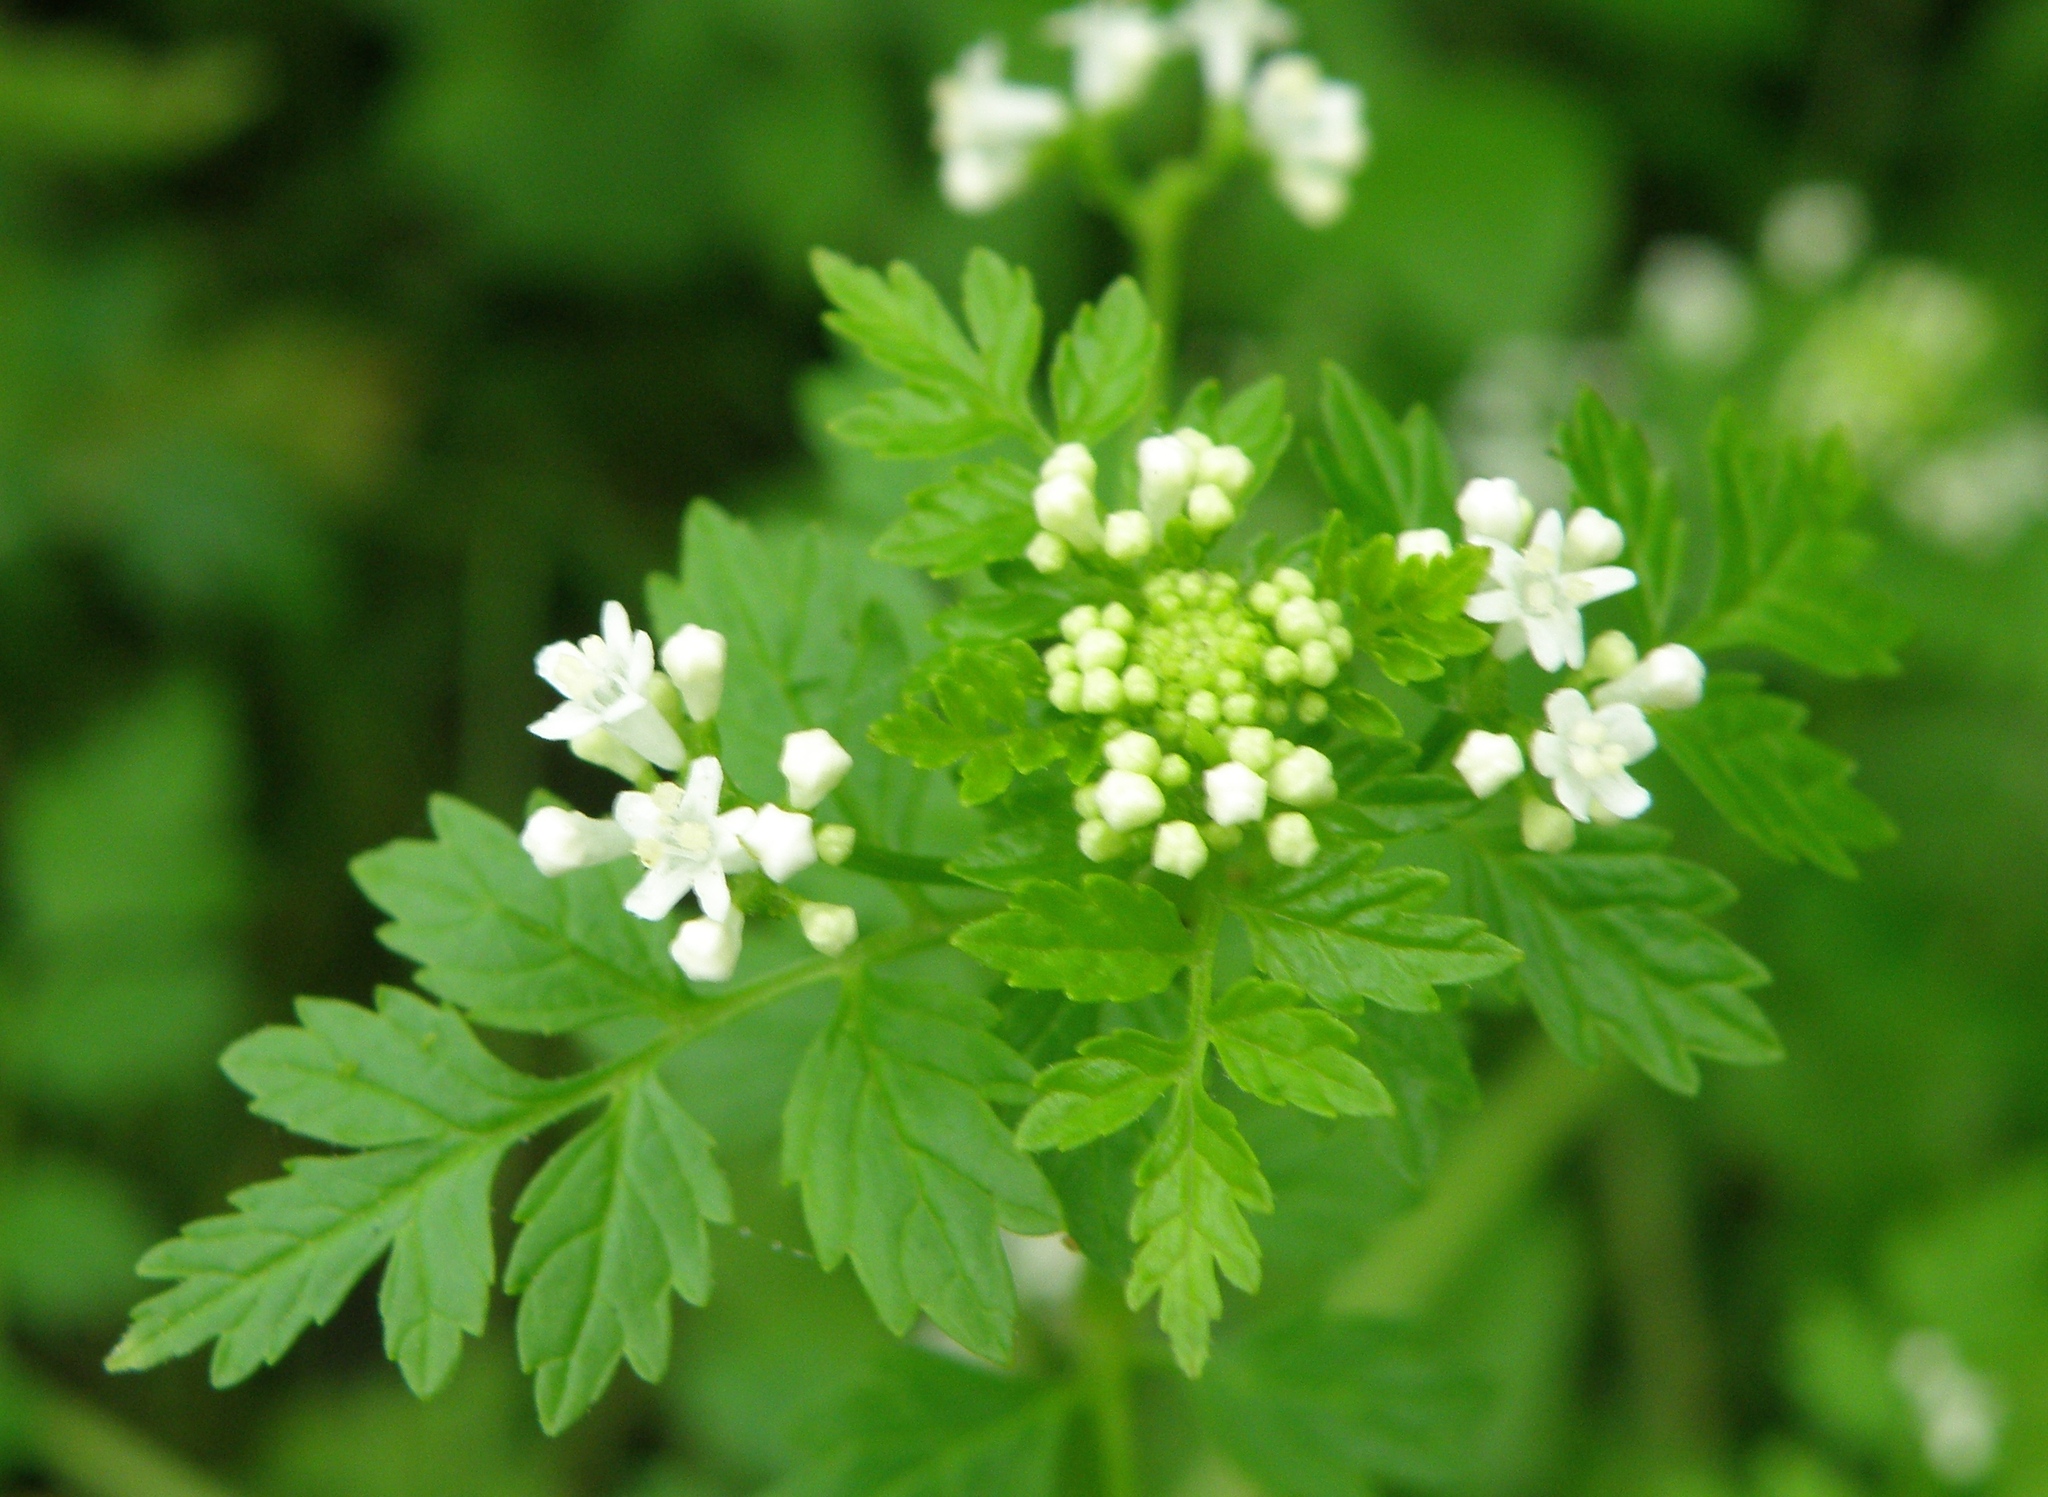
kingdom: Plantae
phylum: Tracheophyta
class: Magnoliopsida
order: Dipsacales
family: Caprifoliaceae
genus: Valeriana
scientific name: Valeriana chaerophylloides
